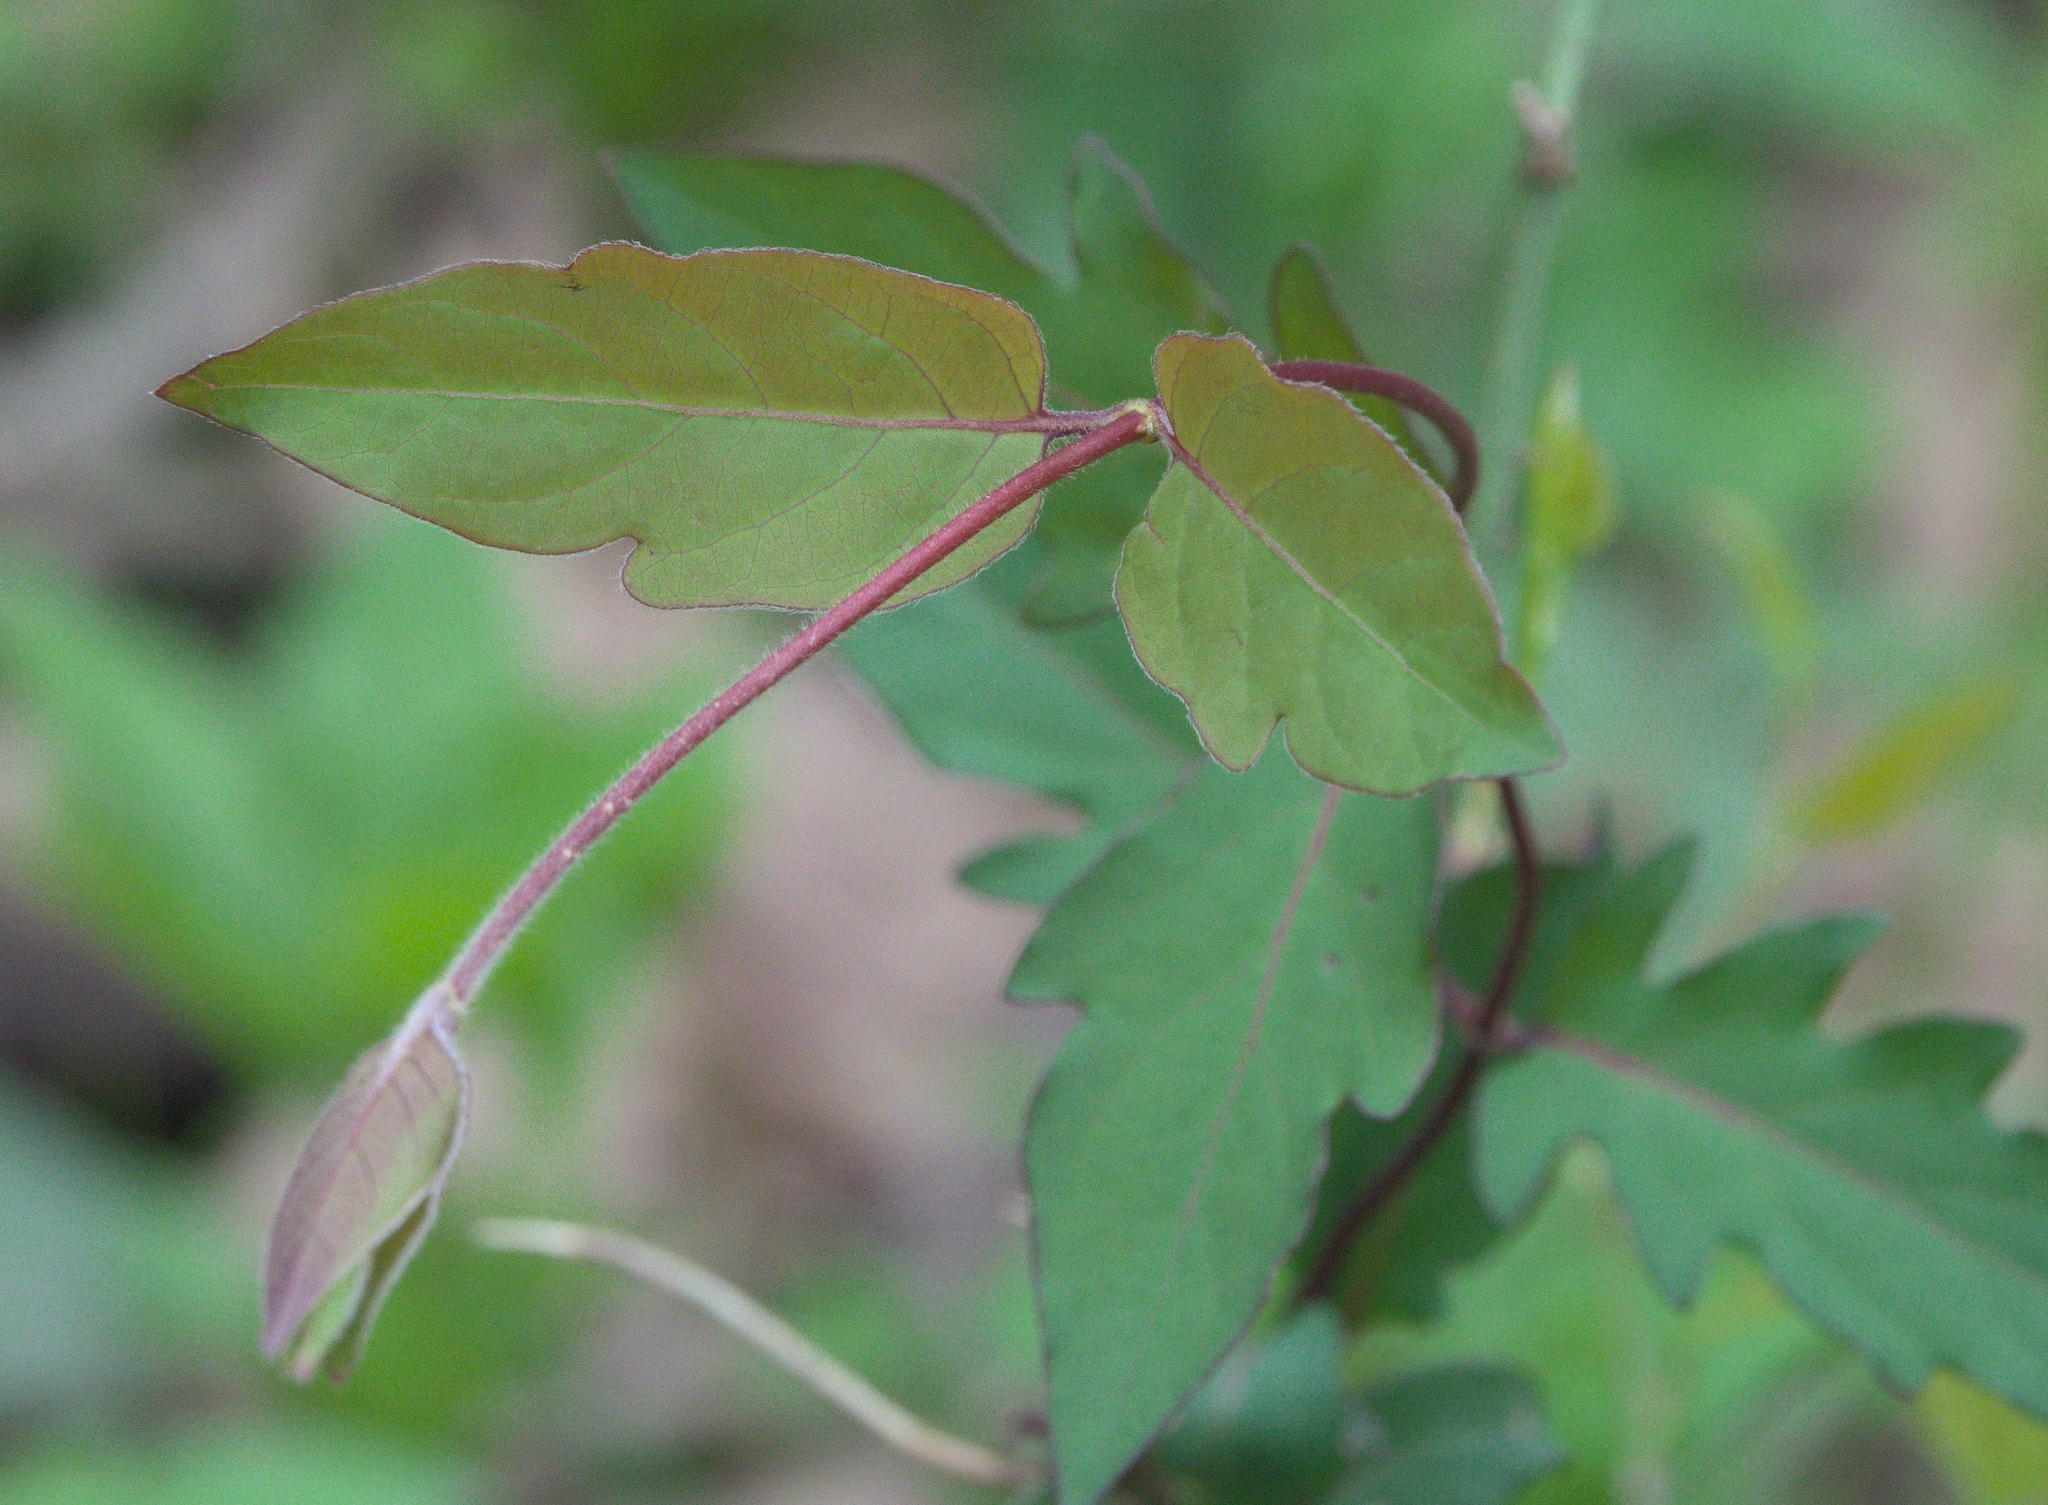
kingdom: Plantae
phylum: Tracheophyta
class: Magnoliopsida
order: Dipsacales
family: Caprifoliaceae
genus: Lonicera
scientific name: Lonicera japonica
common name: Japanese honeysuckle
